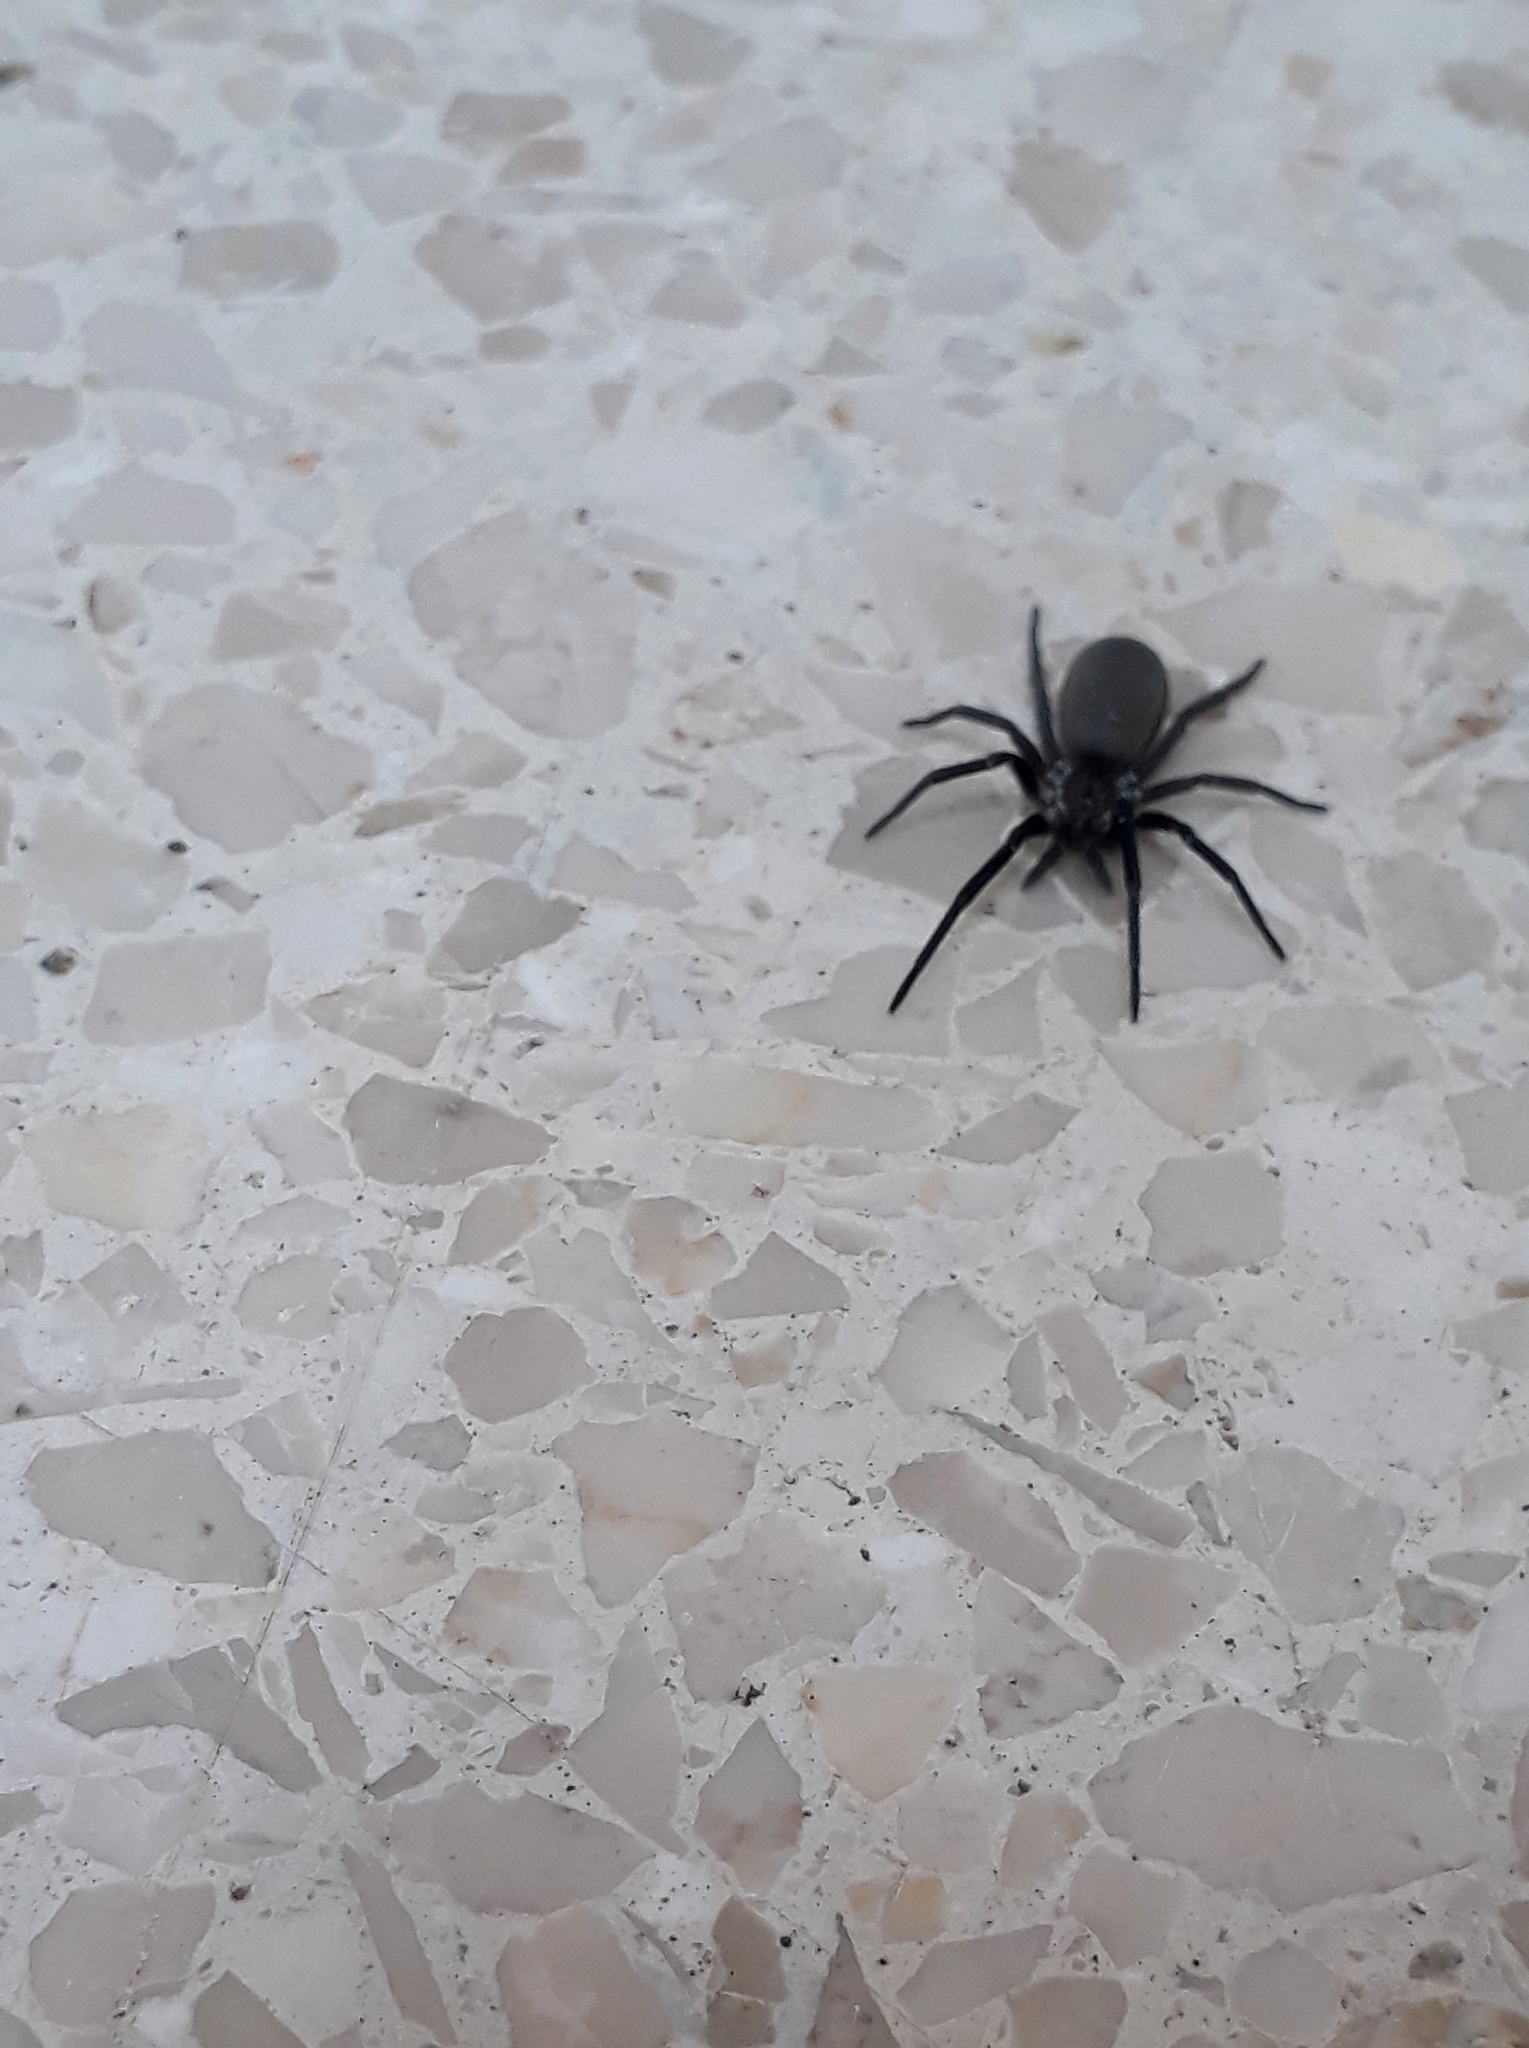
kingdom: Animalia
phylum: Arthropoda
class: Arachnida
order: Araneae
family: Filistatidae
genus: Kukulcania
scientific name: Kukulcania hibernalis
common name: Crevice weaver
